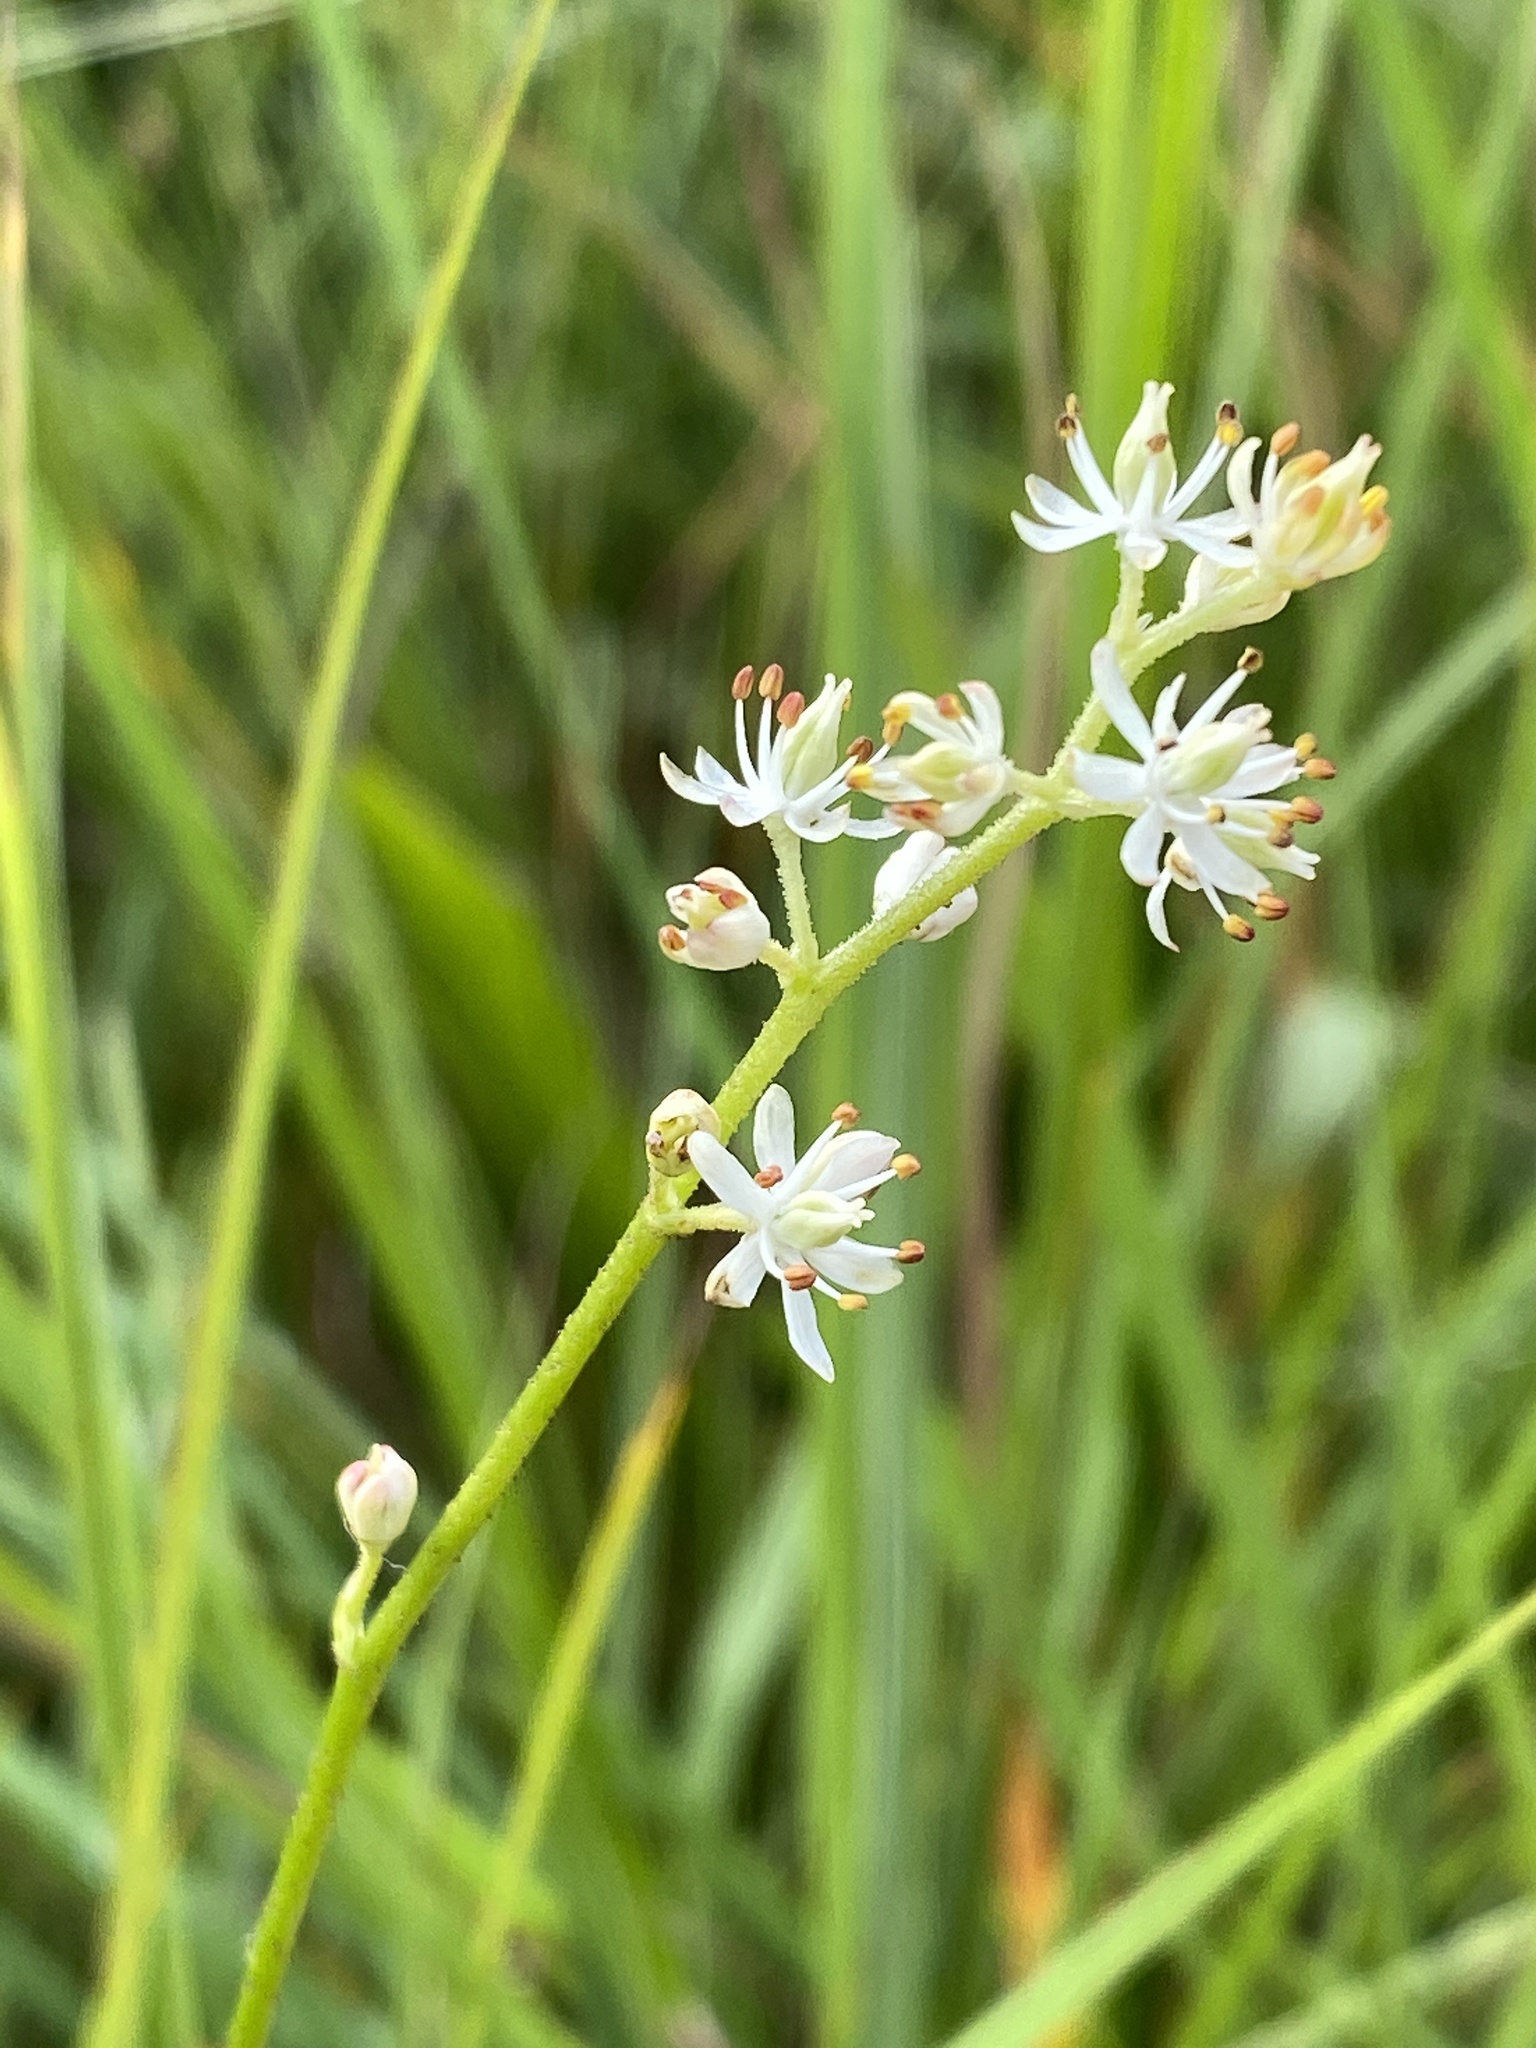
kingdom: Plantae
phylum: Tracheophyta
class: Liliopsida
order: Alismatales
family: Tofieldiaceae
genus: Triantha
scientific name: Triantha glutinosa
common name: Glutinous tofieldia
